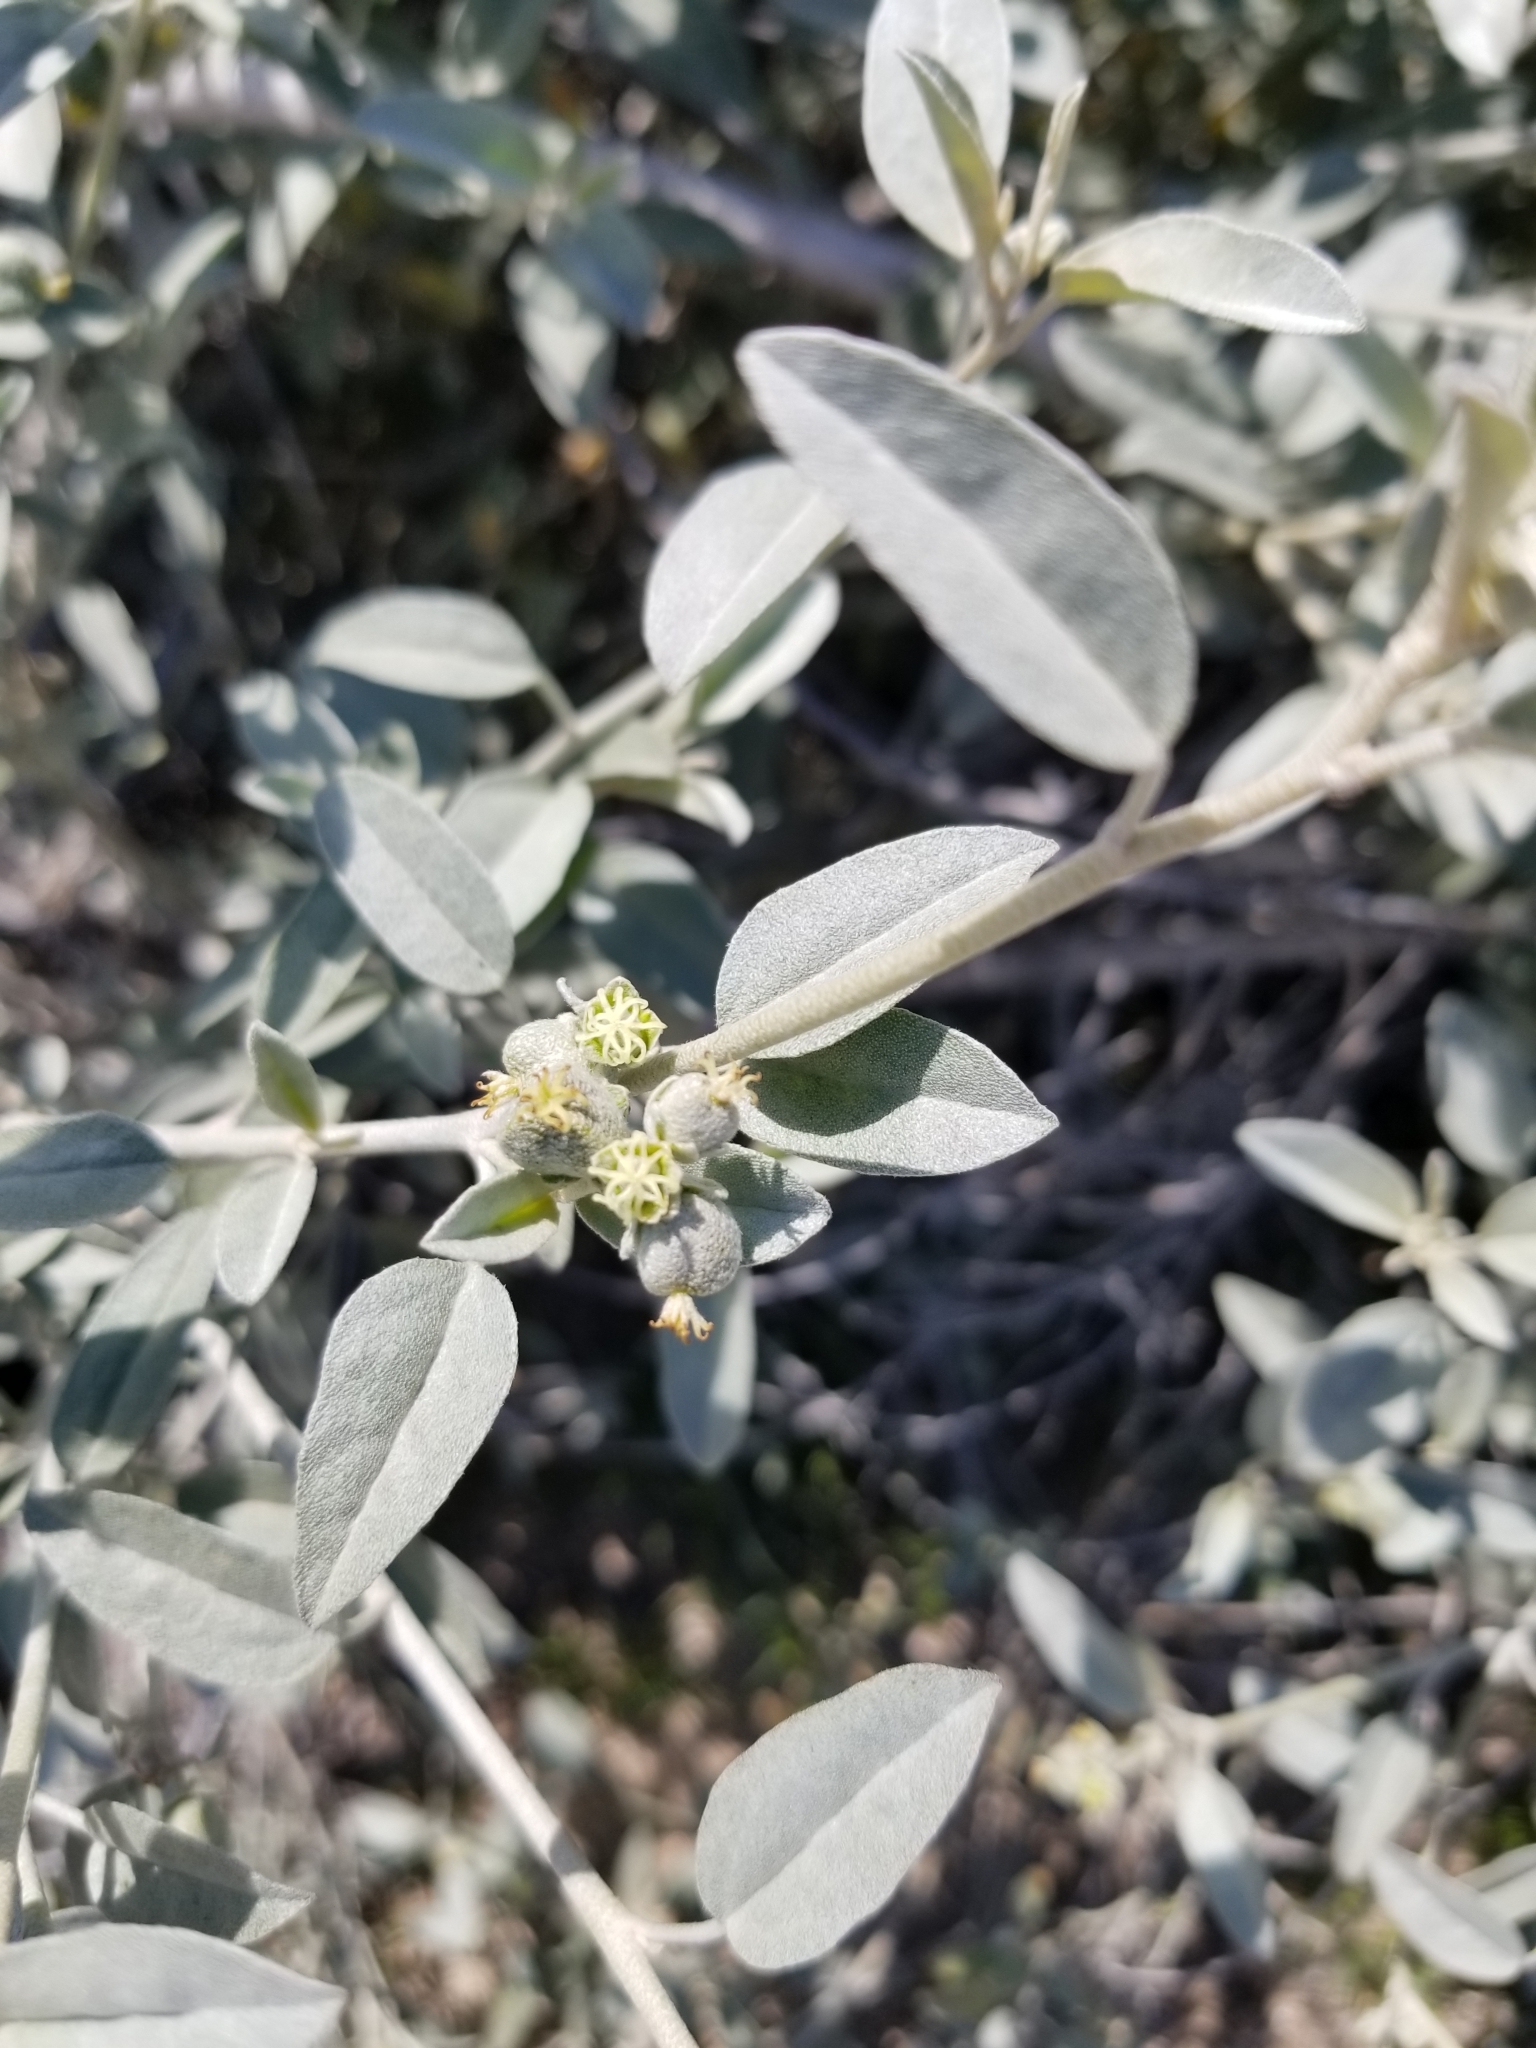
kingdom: Plantae
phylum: Tracheophyta
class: Magnoliopsida
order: Malpighiales
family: Euphorbiaceae
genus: Croton
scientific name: Croton californicus
